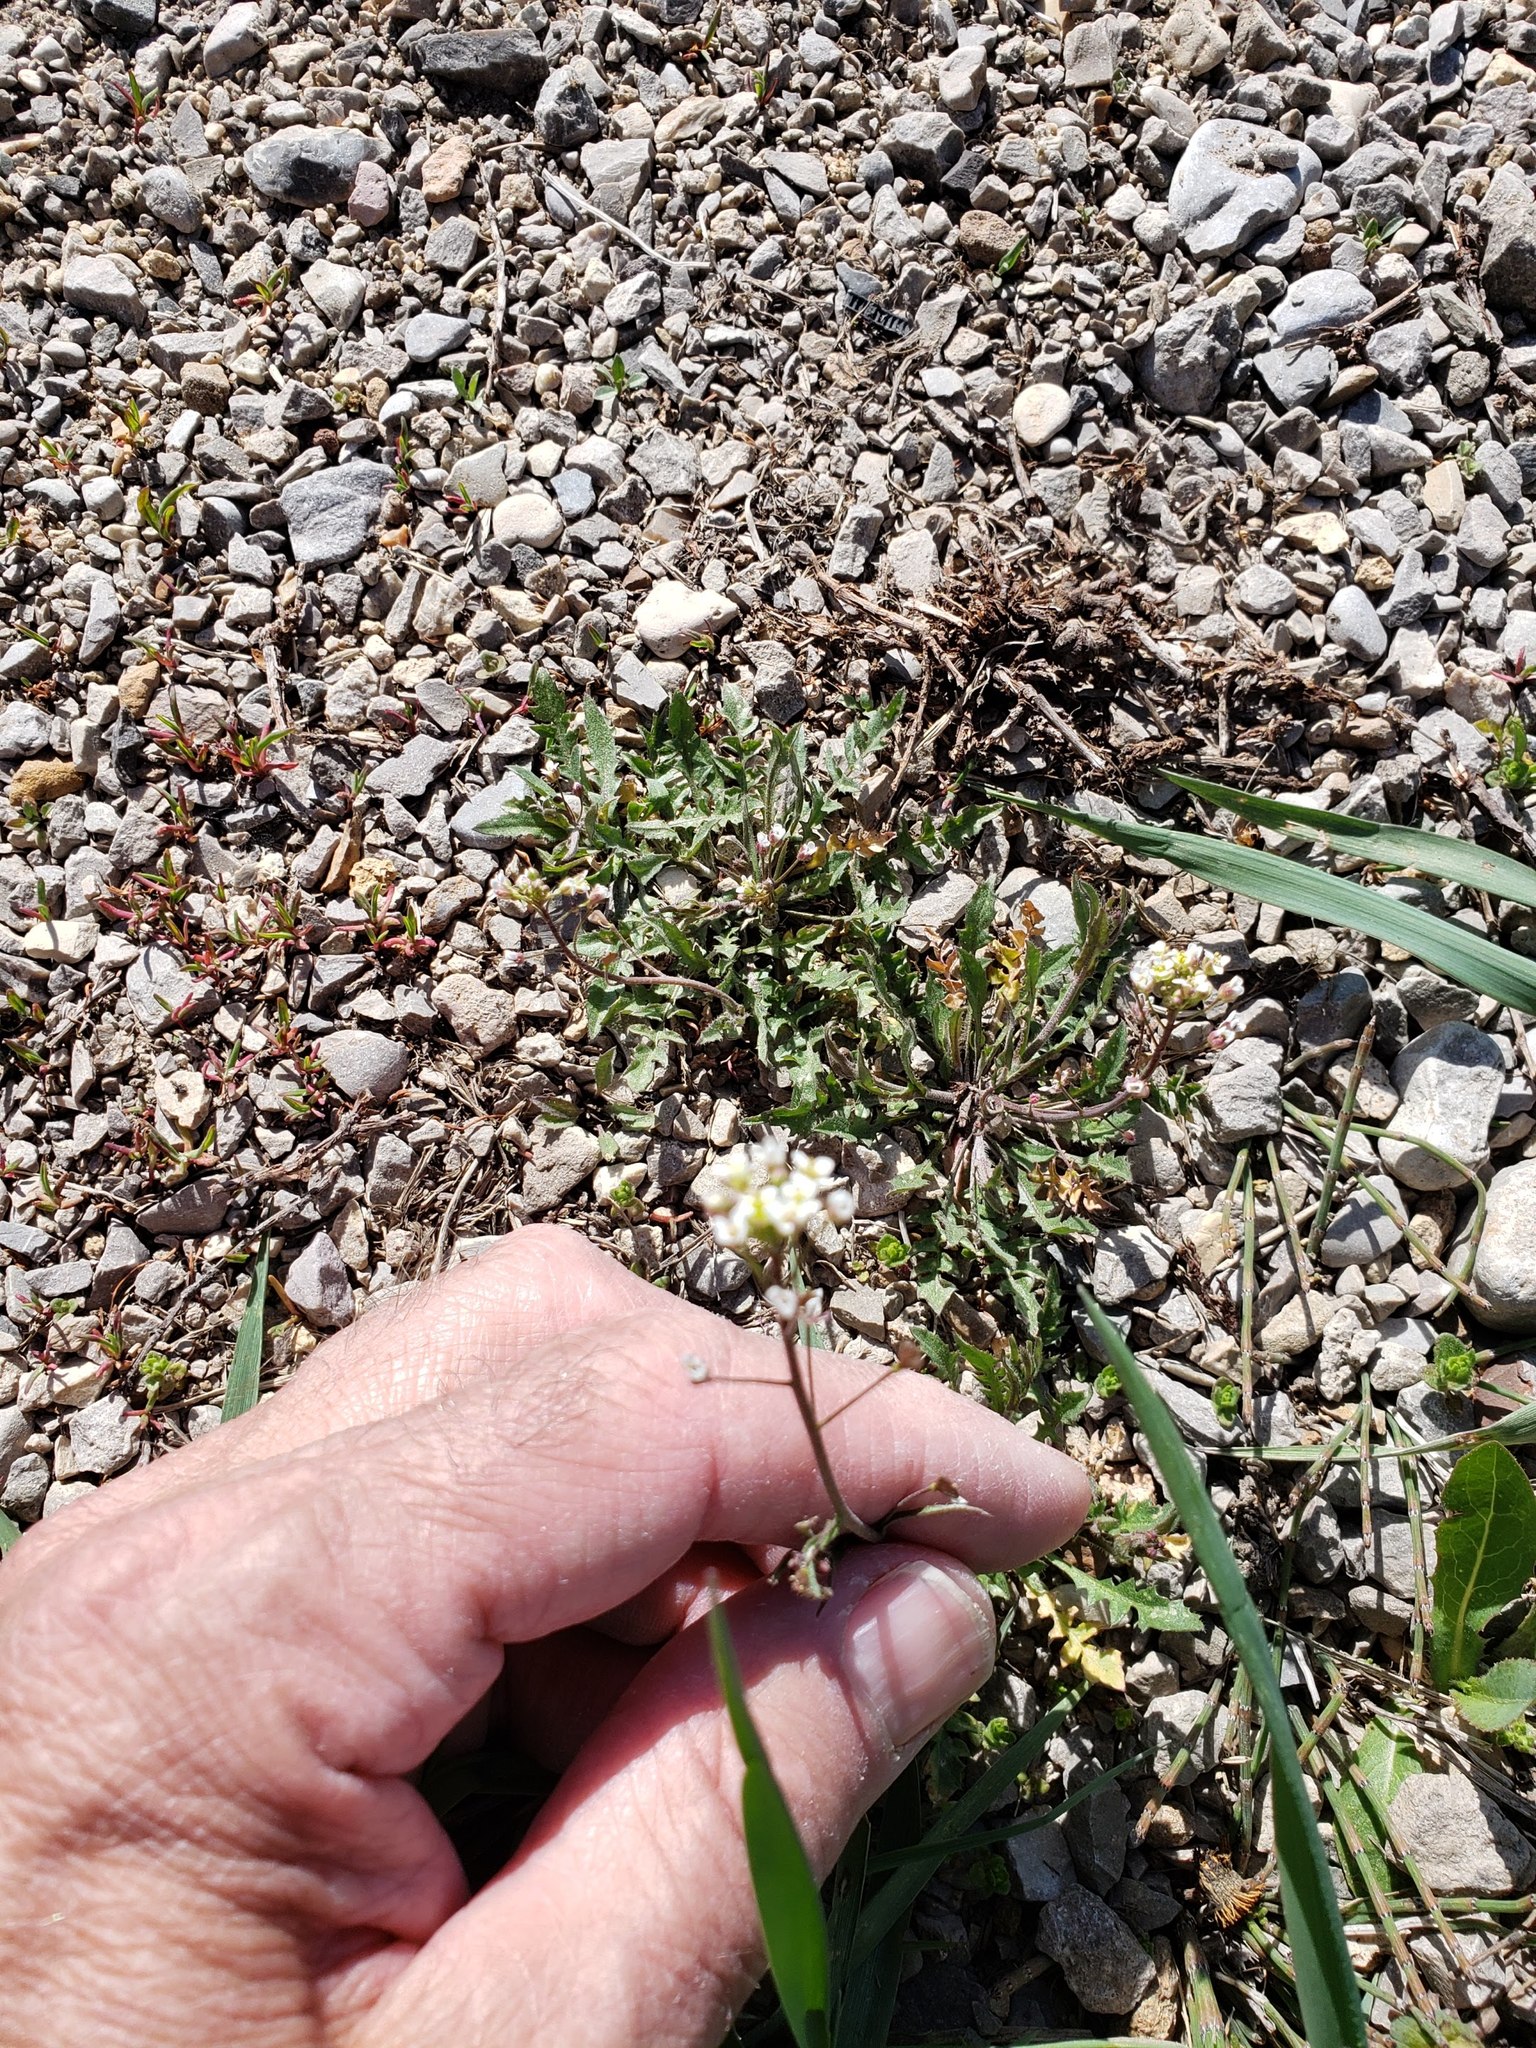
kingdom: Plantae
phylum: Tracheophyta
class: Magnoliopsida
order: Brassicales
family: Brassicaceae
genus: Capsella
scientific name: Capsella bursa-pastoris
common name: Shepherd's purse
